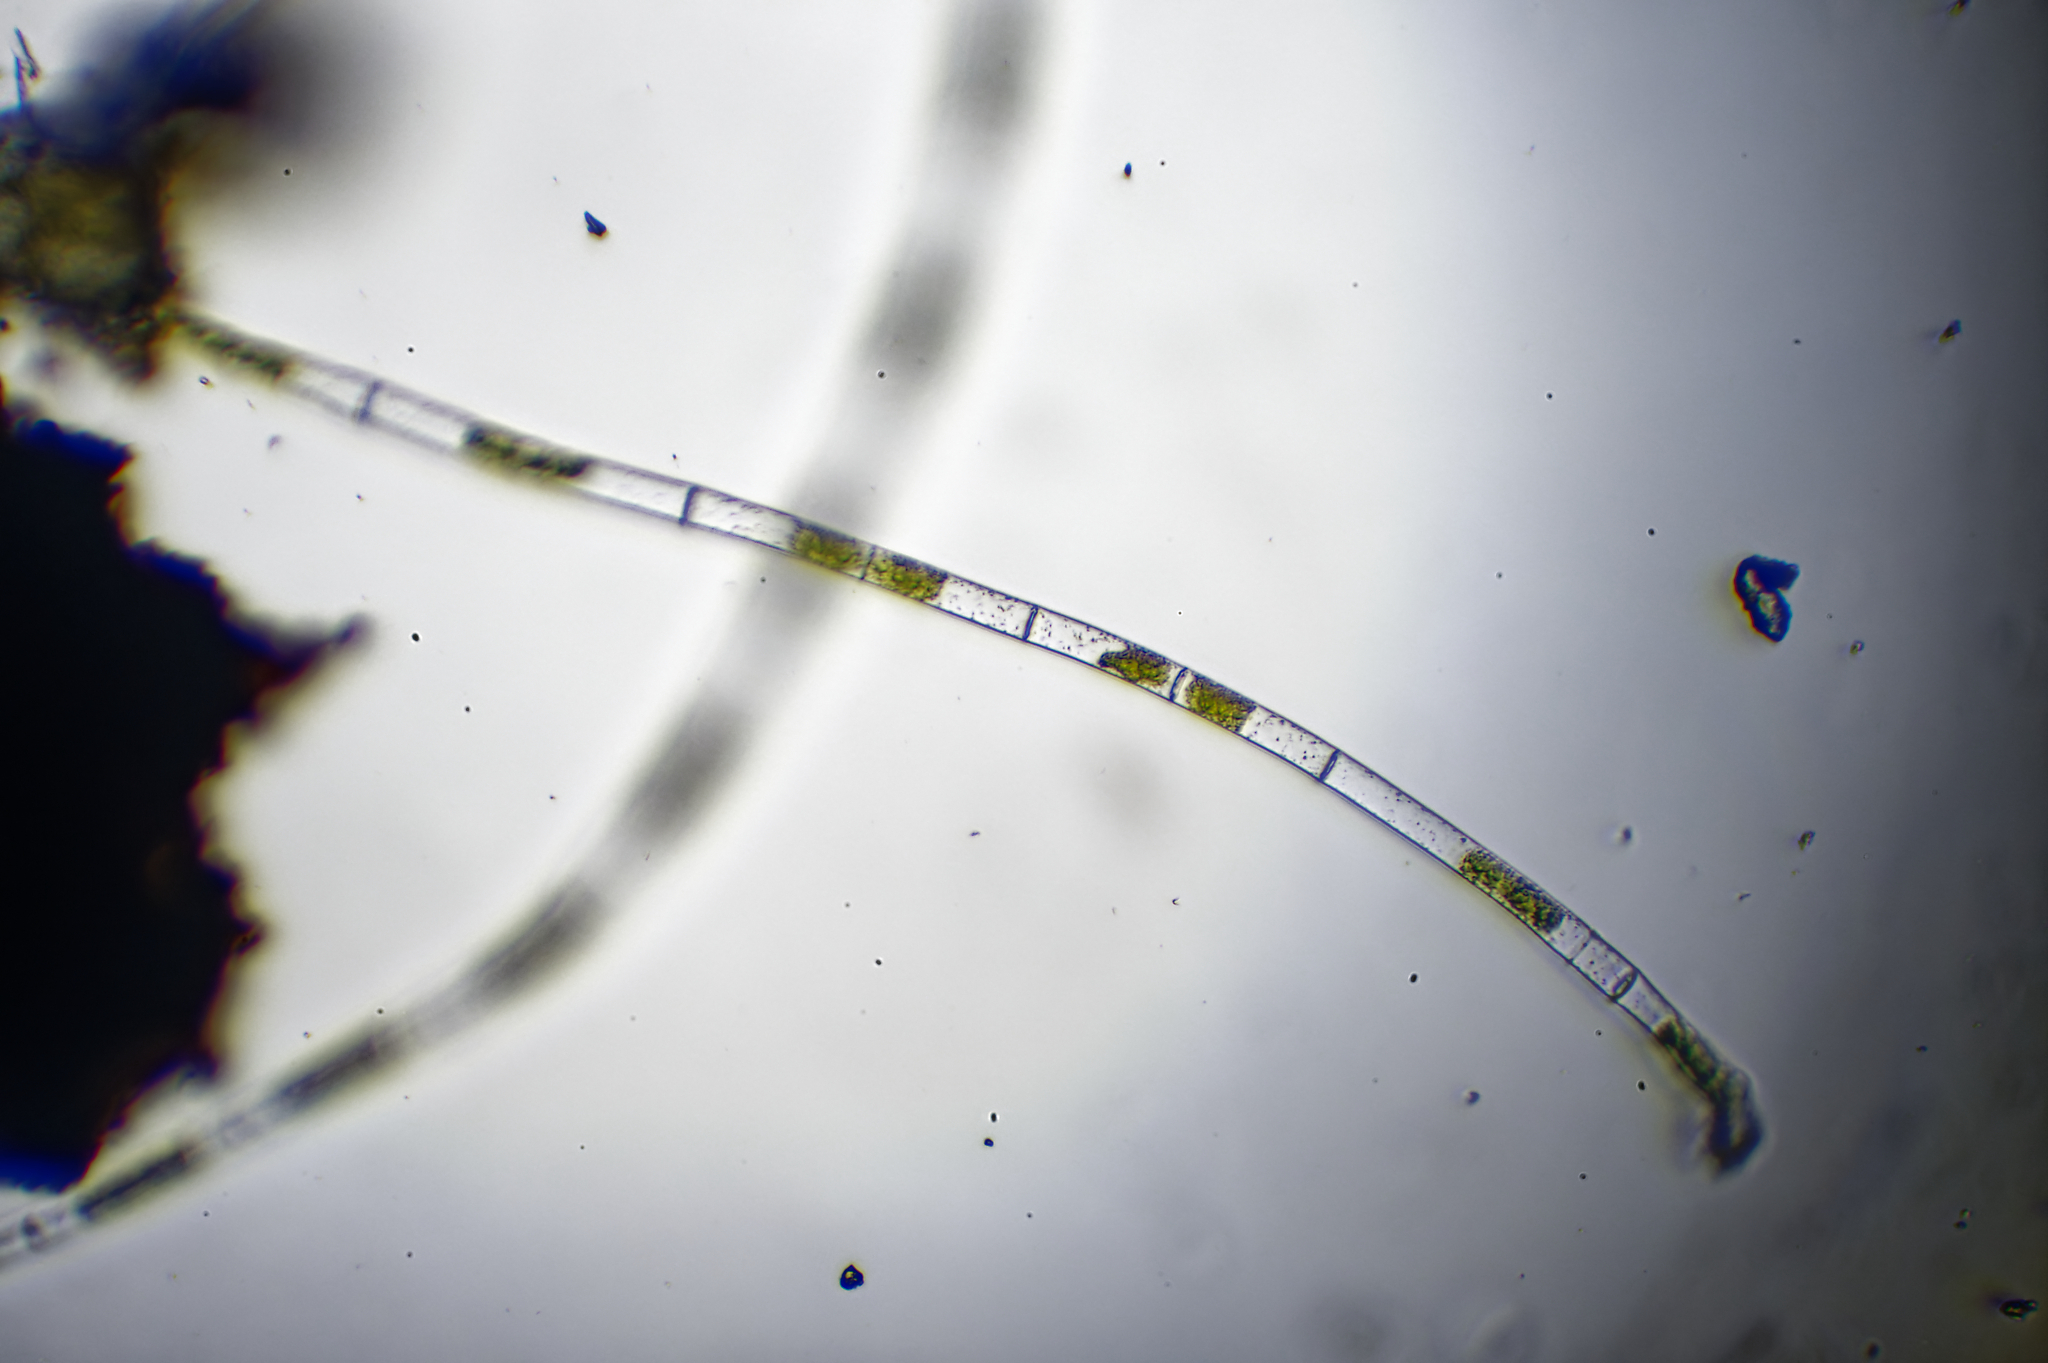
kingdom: Plantae
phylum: Charophyta
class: Zygnematophyceae
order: Zygnematales
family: Zygnemataceae
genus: Mougeotia
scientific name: Mougeotia
